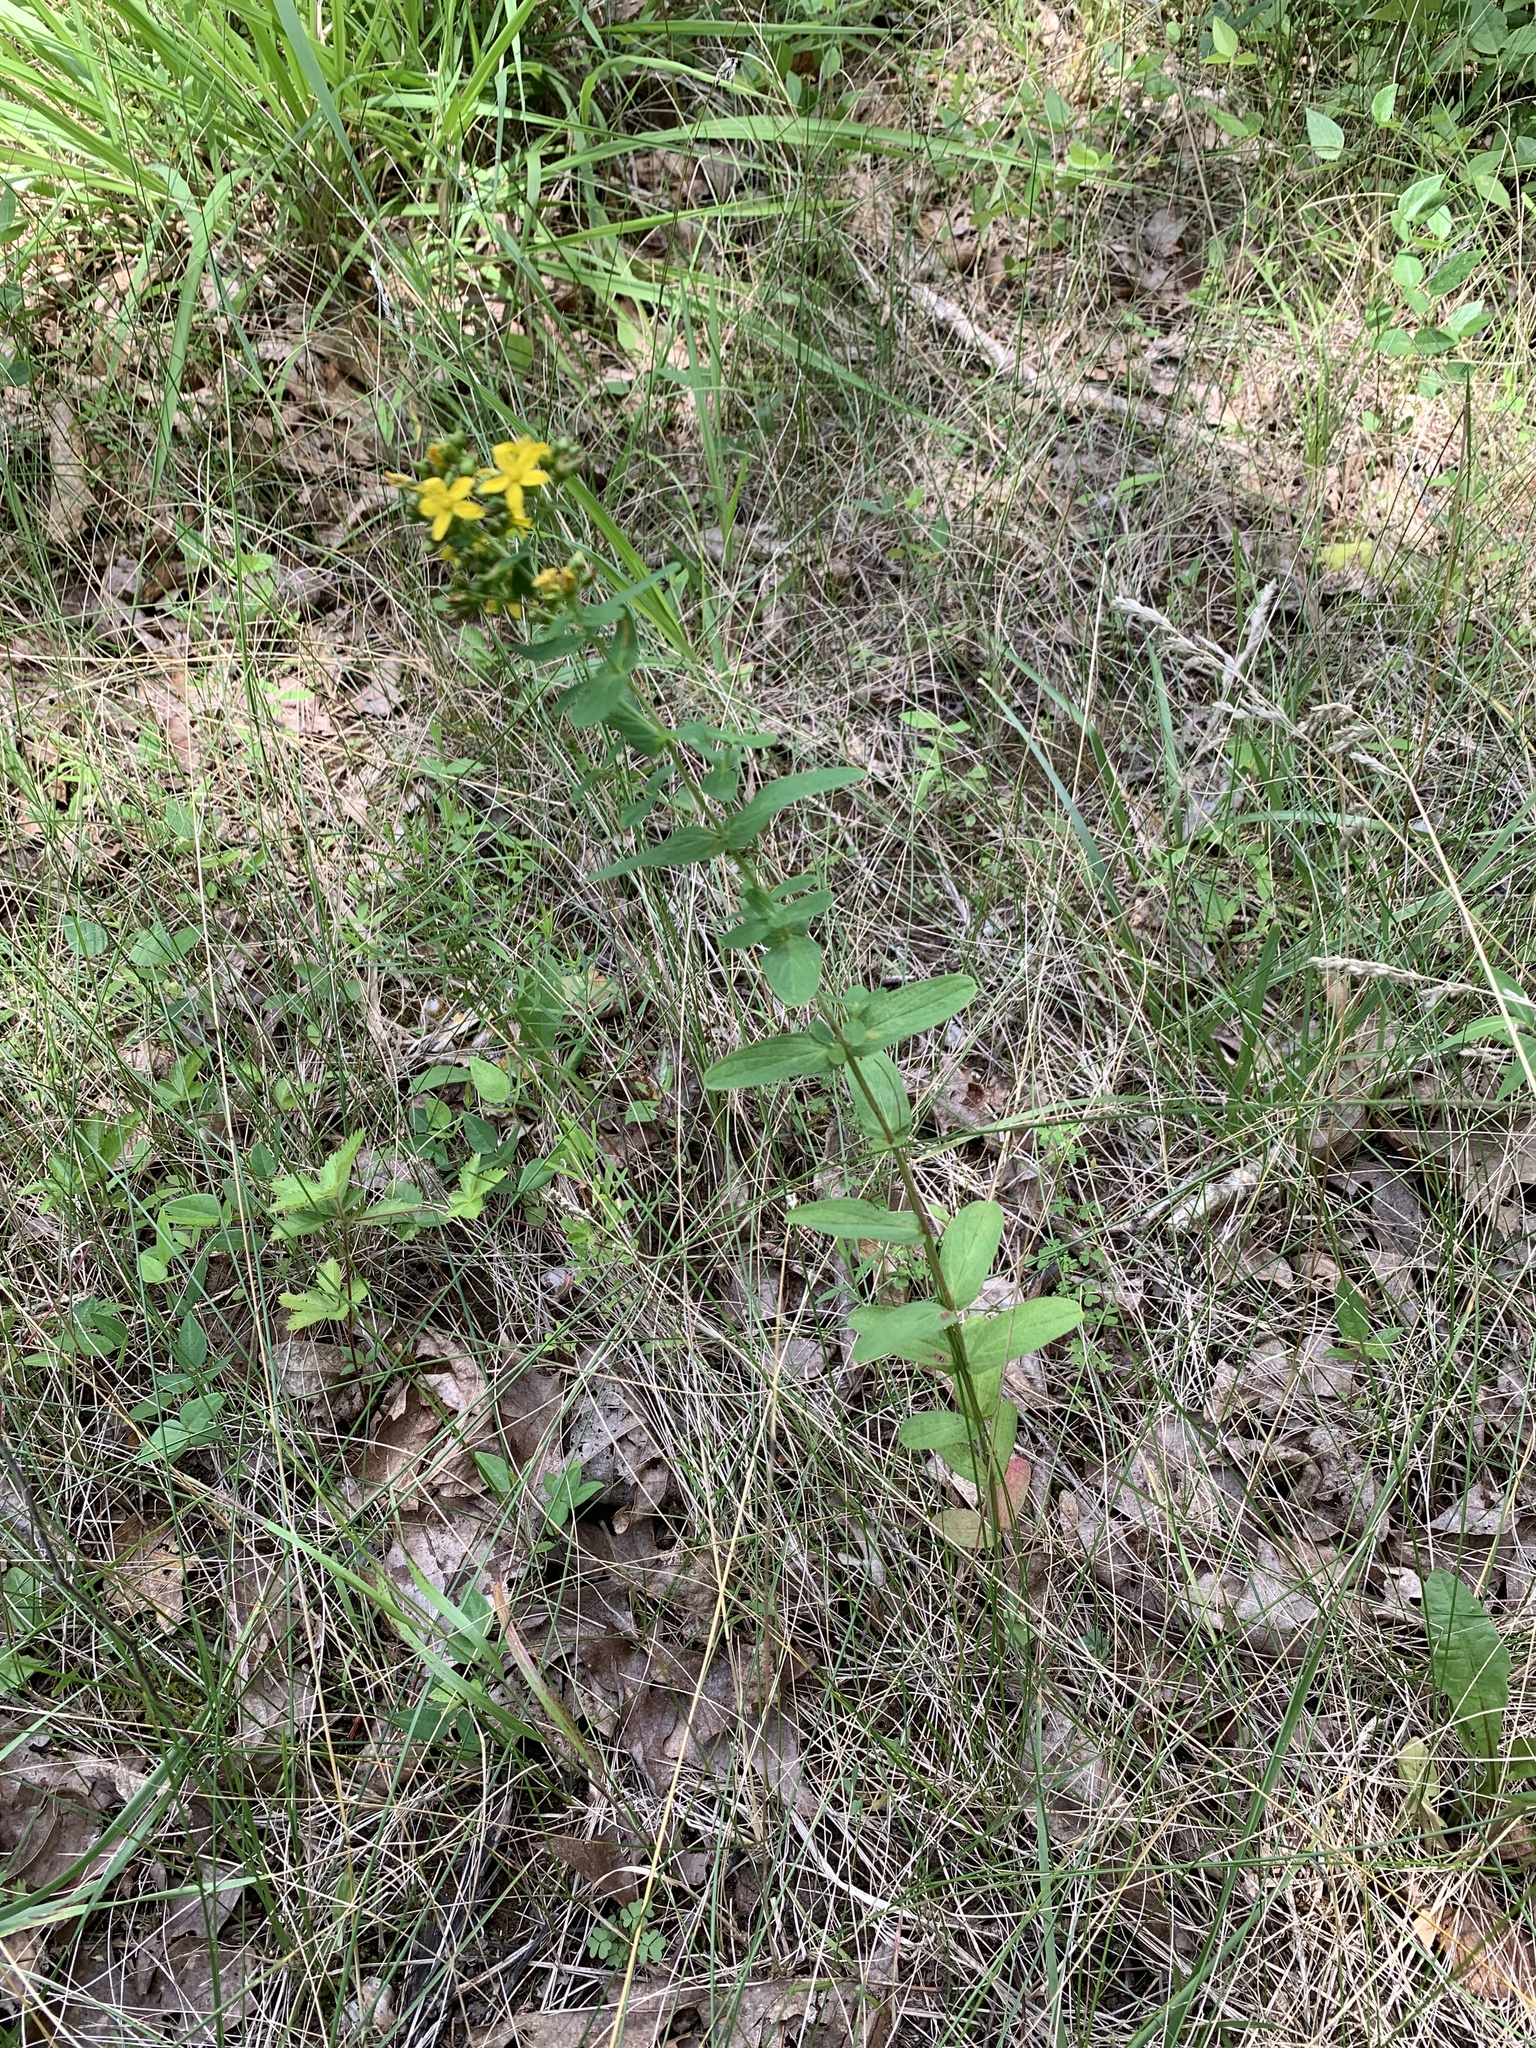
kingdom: Plantae
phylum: Tracheophyta
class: Magnoliopsida
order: Malpighiales
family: Hypericaceae
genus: Hypericum
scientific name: Hypericum punctatum
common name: Spotted st. john's-wort
